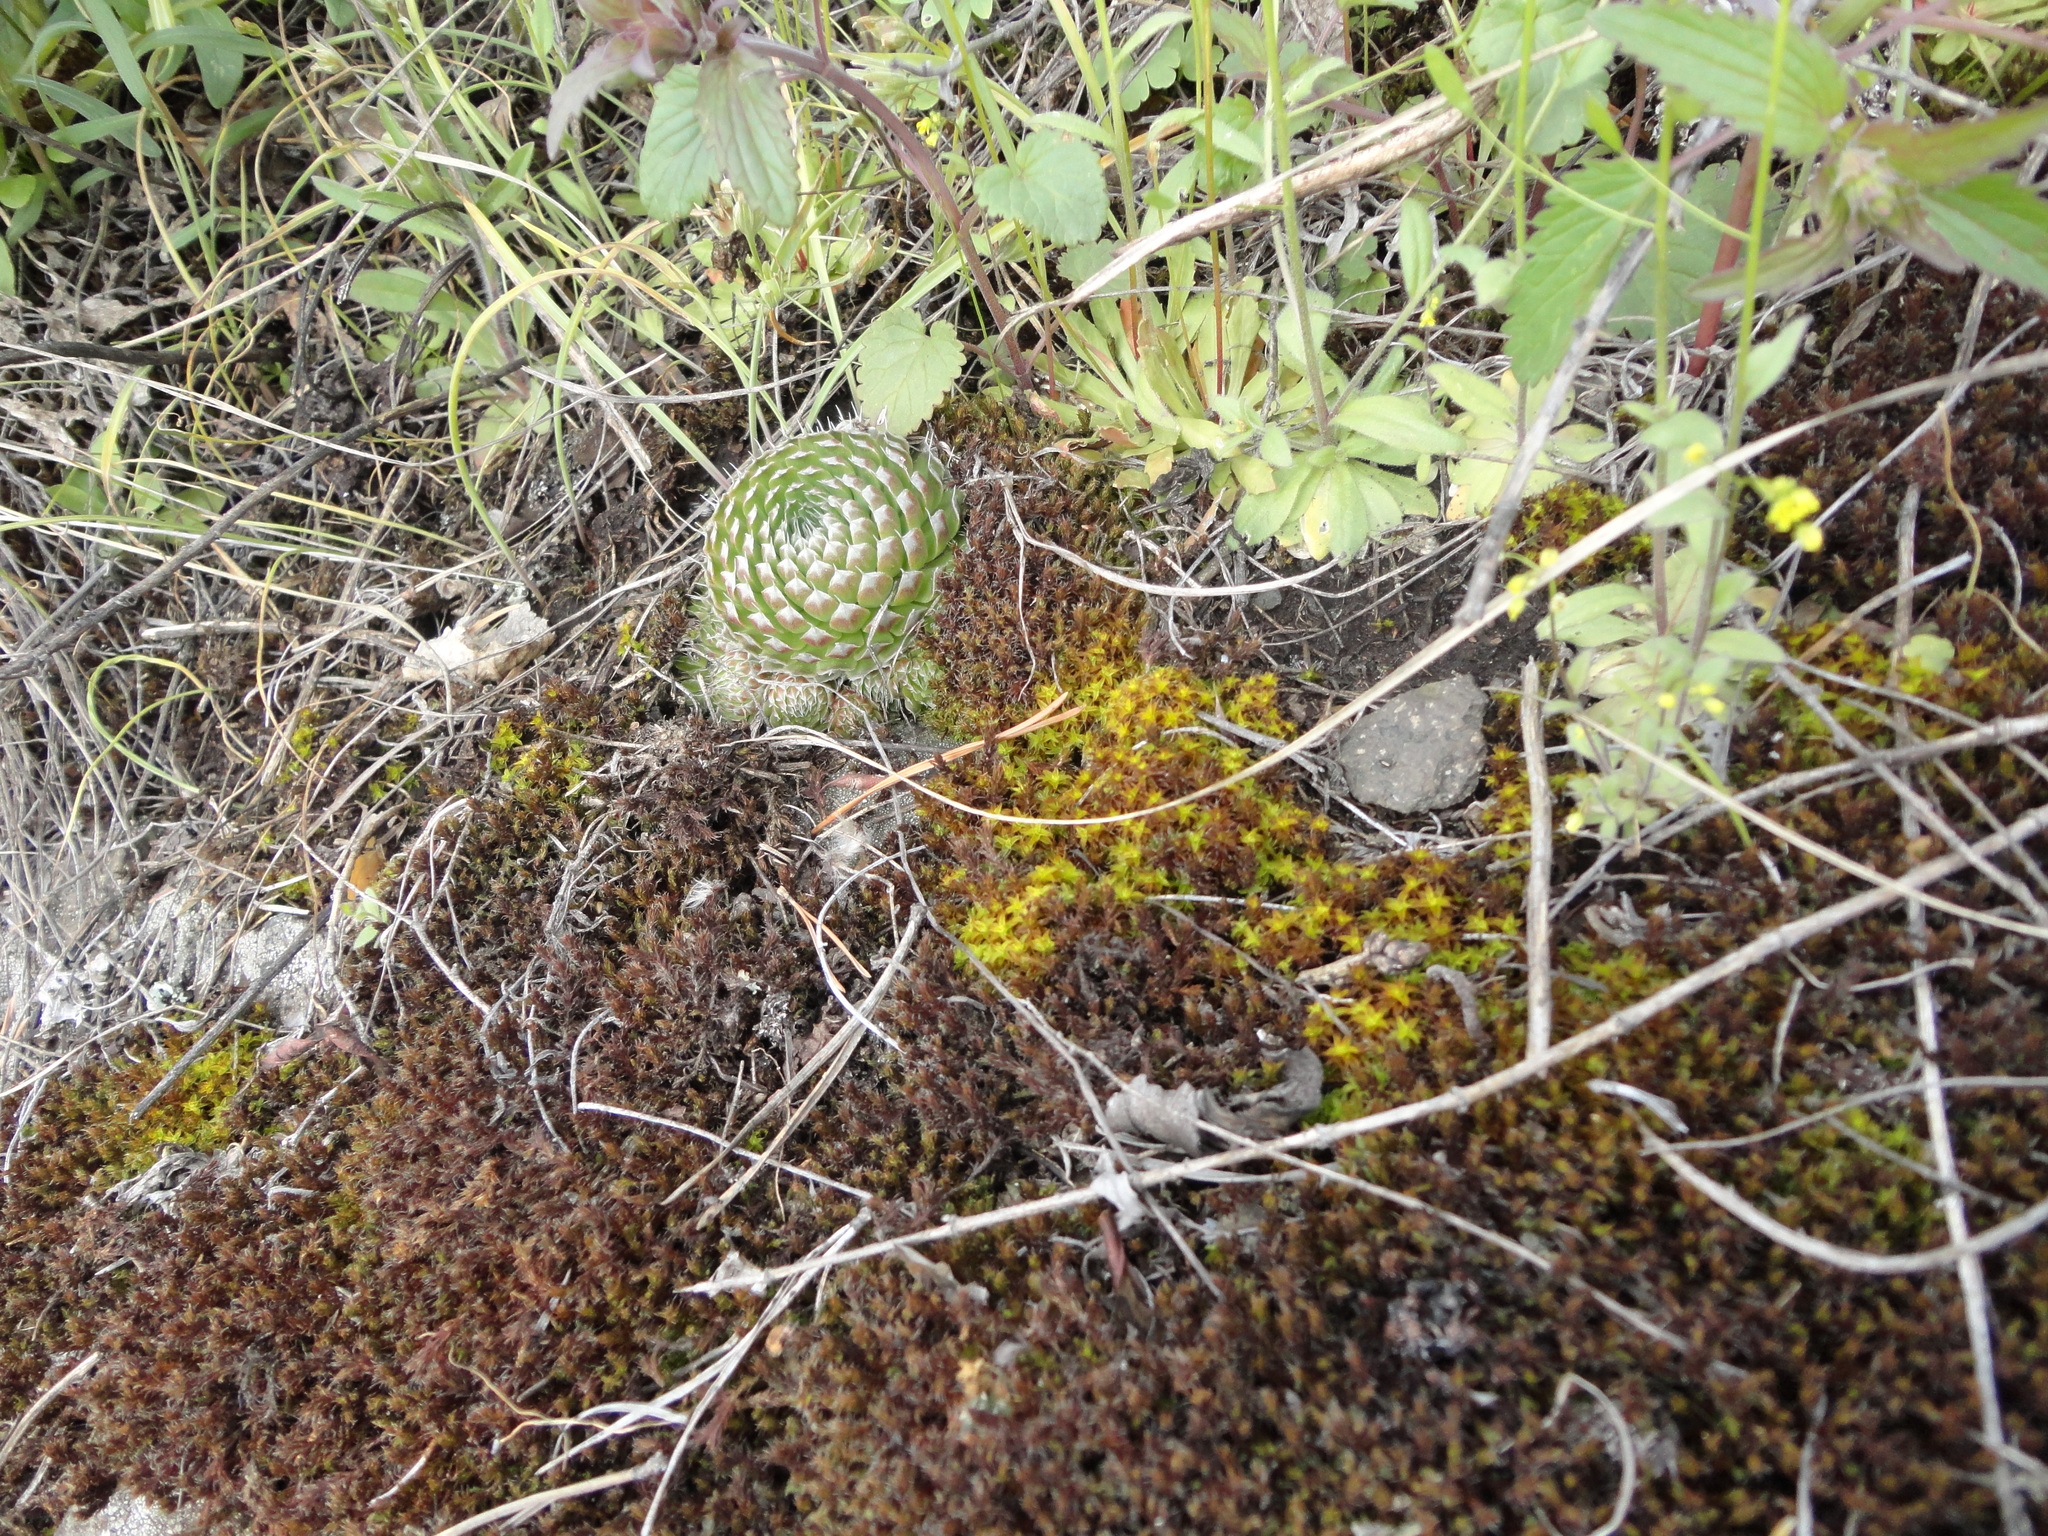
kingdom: Plantae
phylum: Tracheophyta
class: Magnoliopsida
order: Saxifragales
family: Crassulaceae
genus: Orostachys
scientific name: Orostachys spinosa
